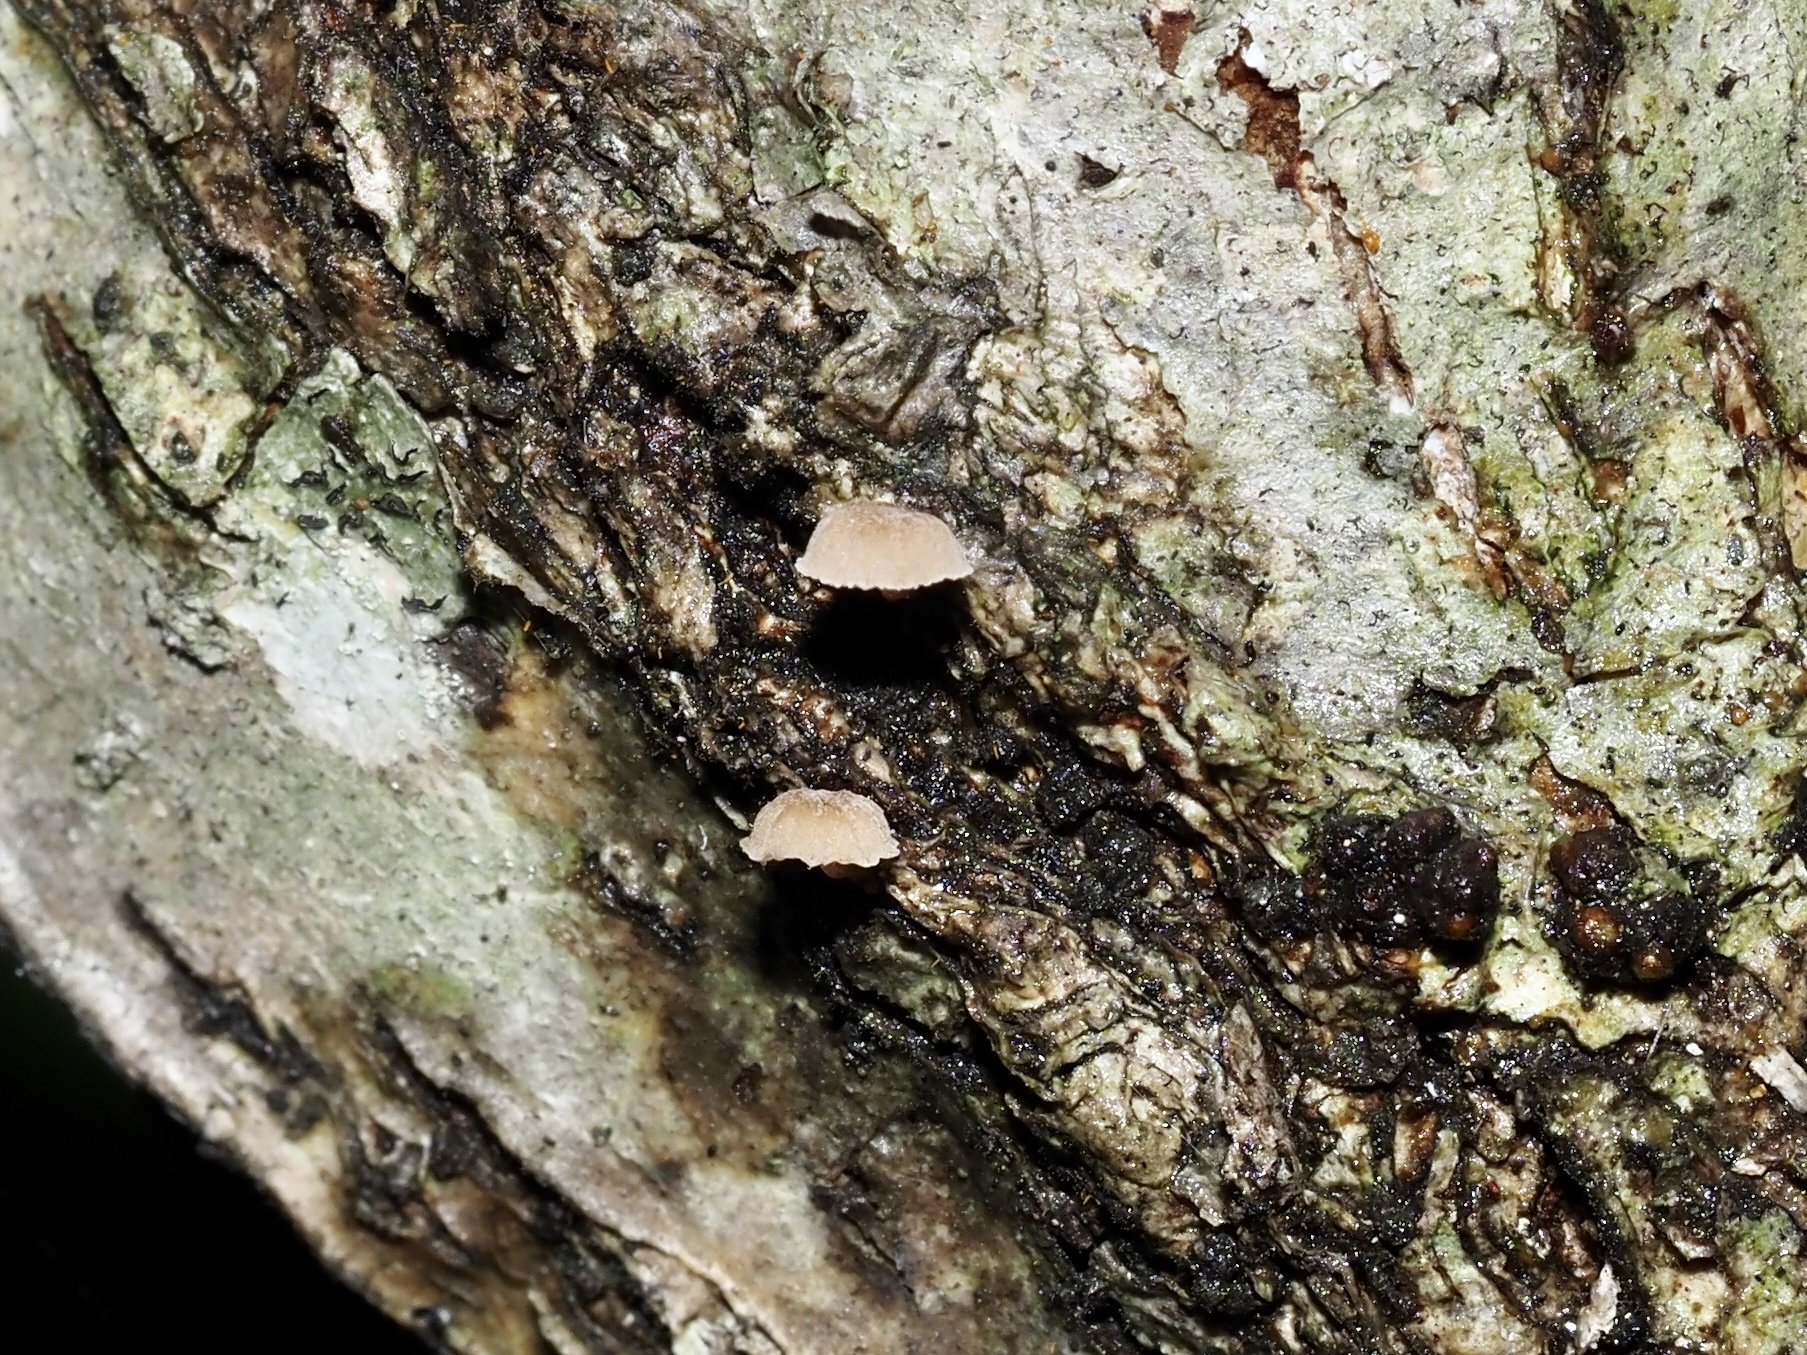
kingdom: Fungi
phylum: Basidiomycota
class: Agaricomycetes
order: Agaricales
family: Mycenaceae
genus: Mycena
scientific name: Mycena meliigena
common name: Mauve bonnet
